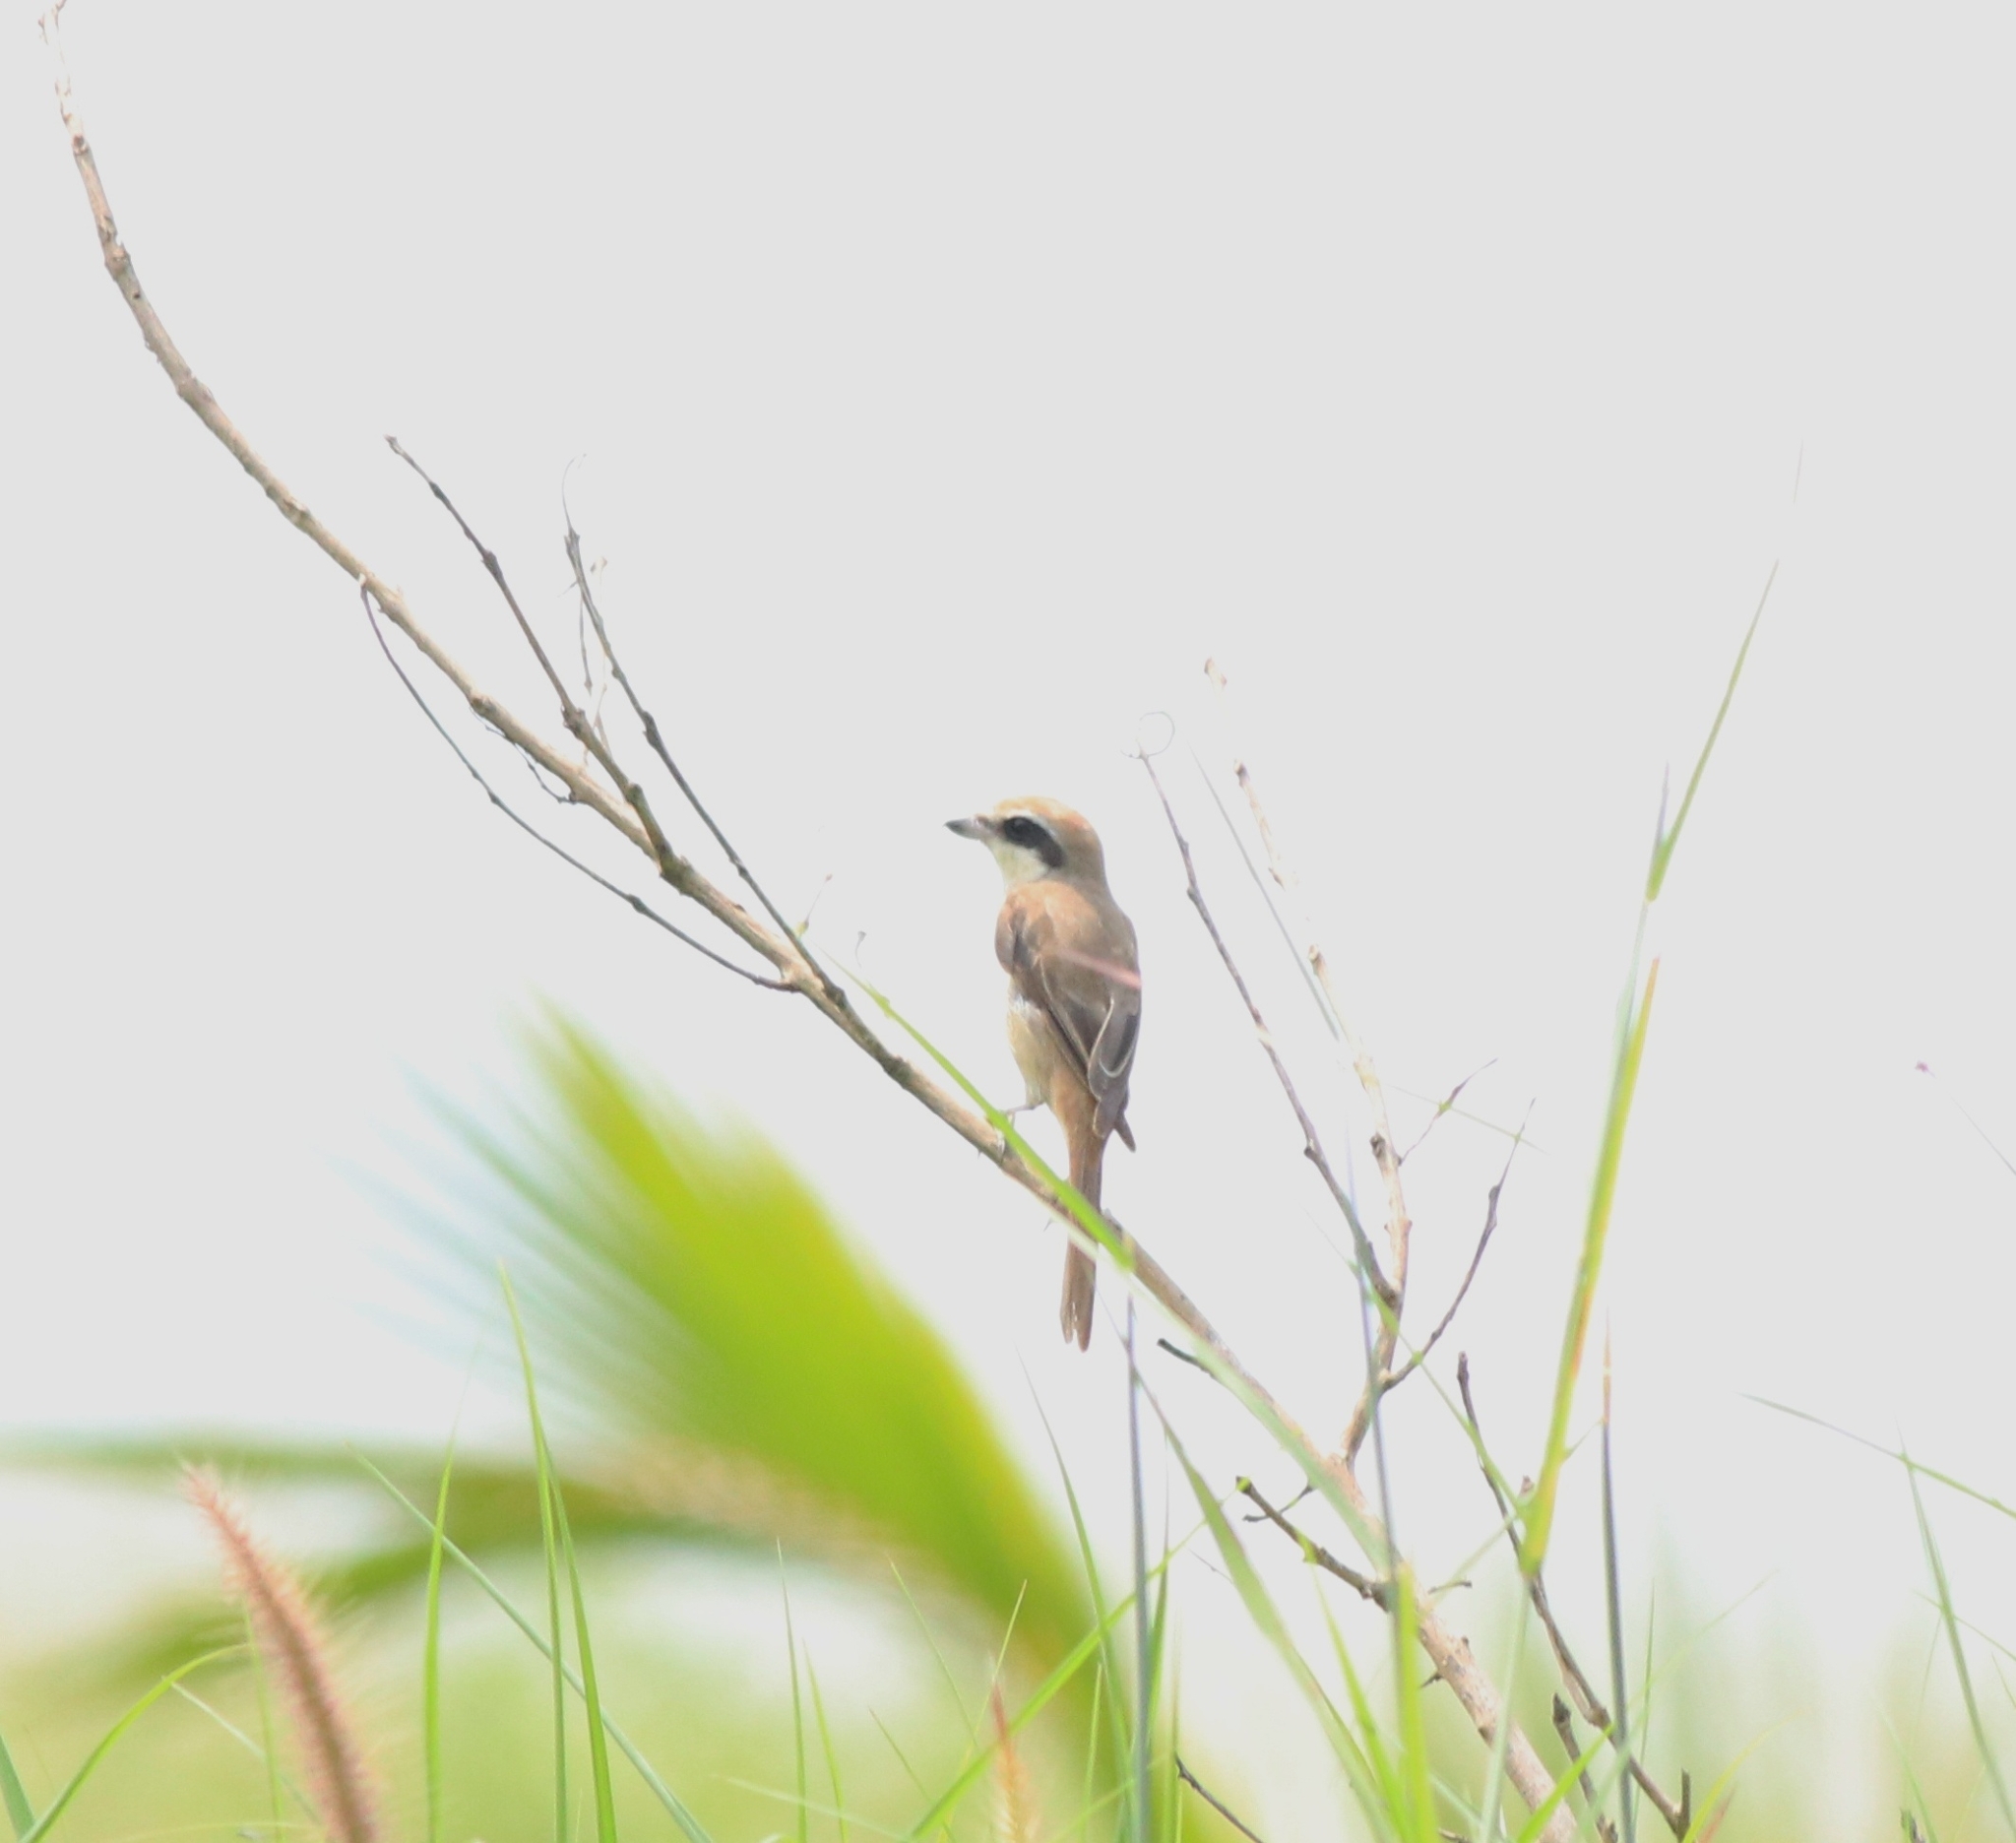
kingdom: Animalia
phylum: Chordata
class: Aves
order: Passeriformes
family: Laniidae
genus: Lanius
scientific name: Lanius cristatus
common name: Brown shrike
